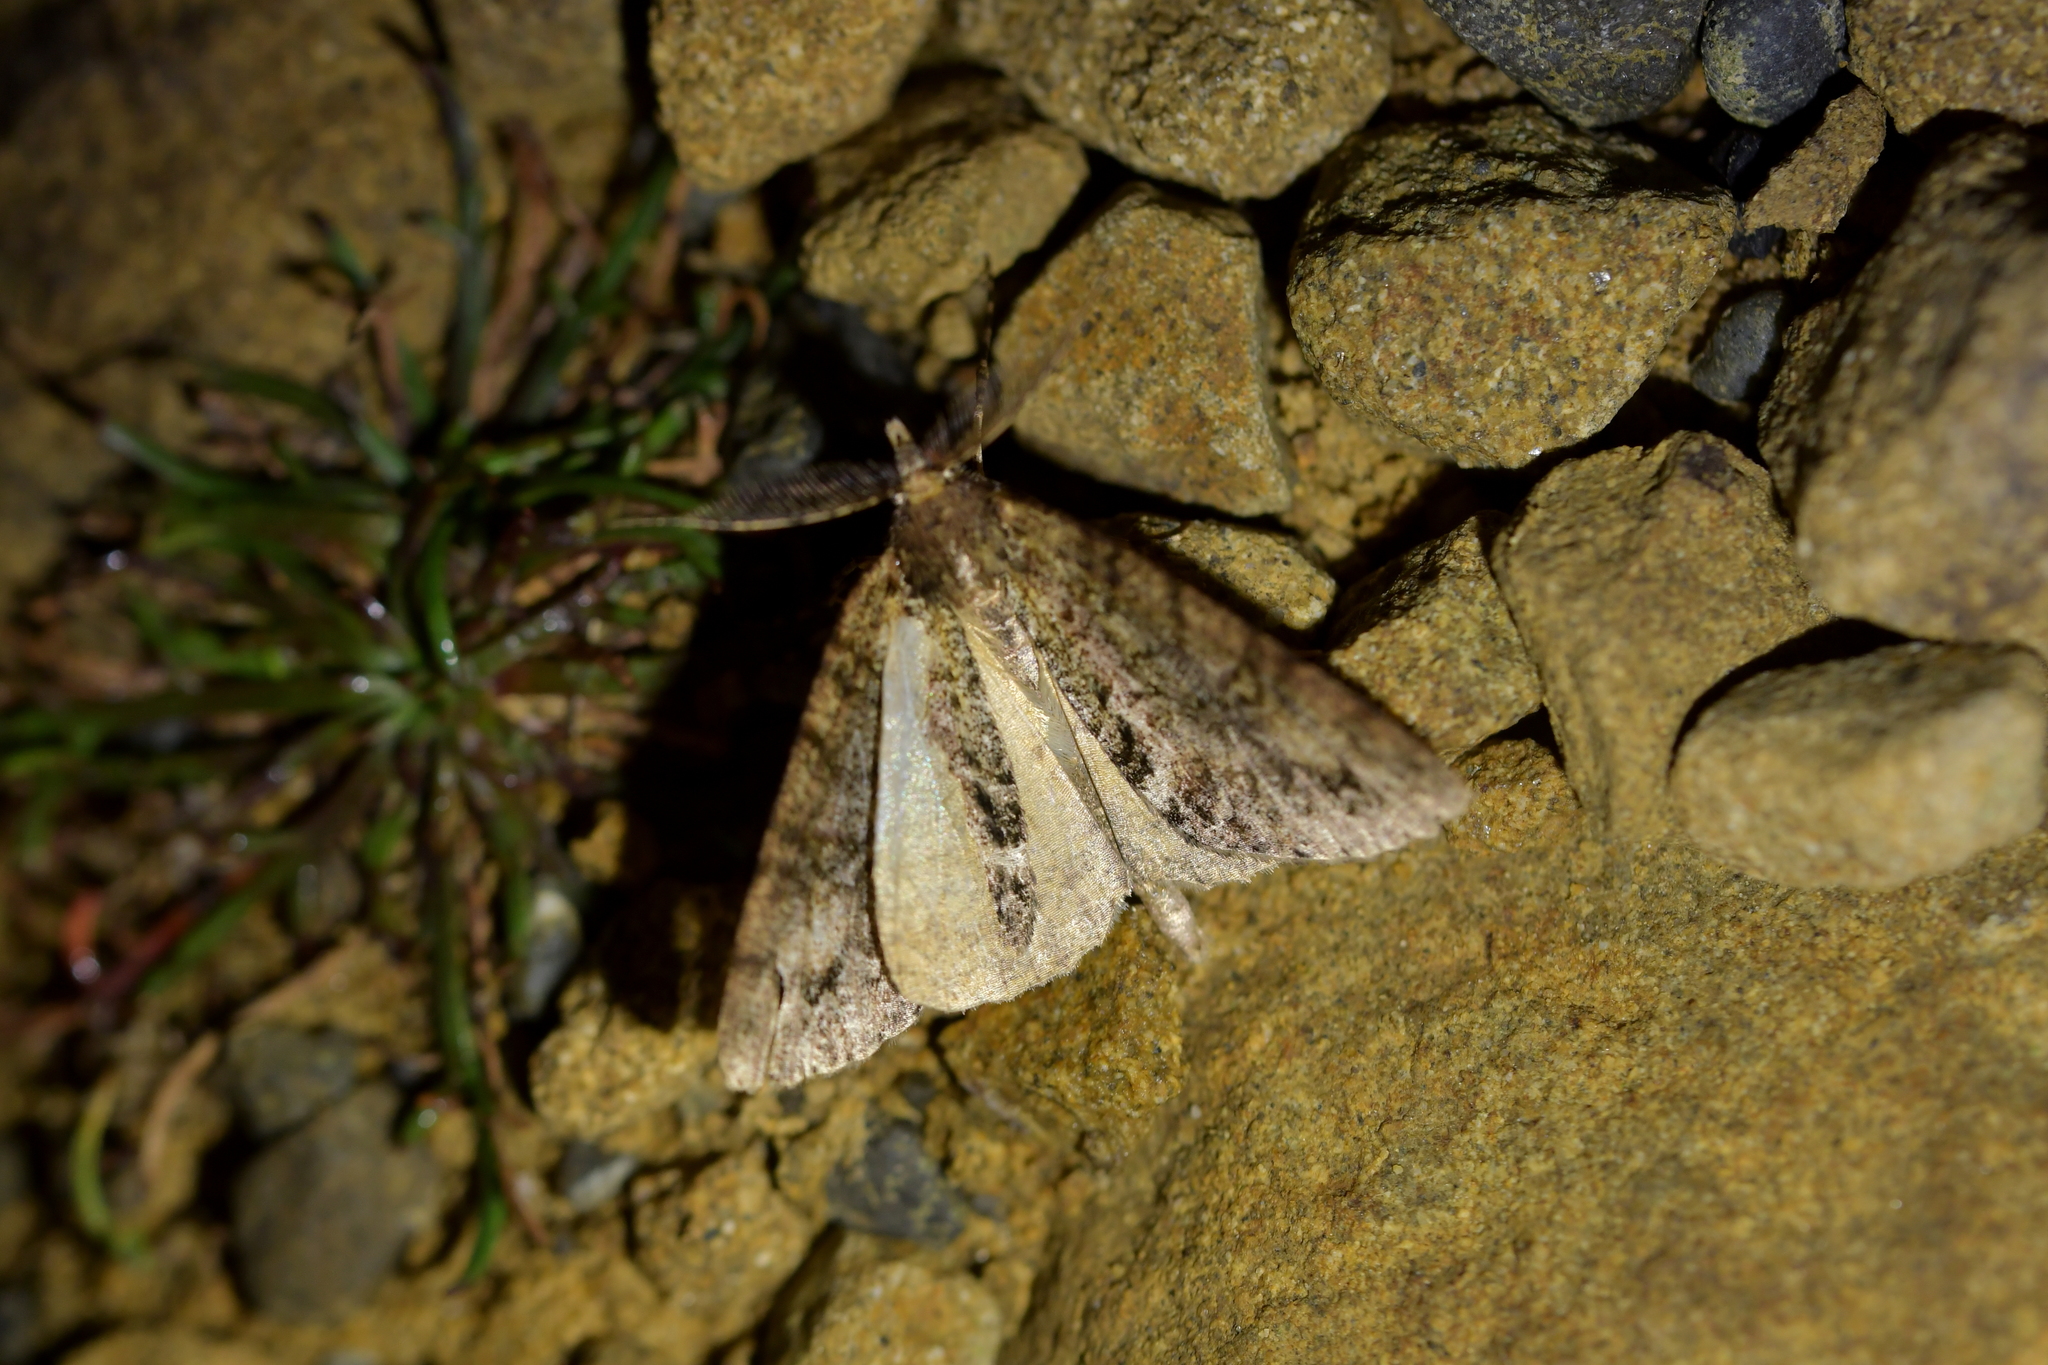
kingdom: Animalia
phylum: Arthropoda
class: Insecta
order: Lepidoptera
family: Geometridae
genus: Pseudocoremia
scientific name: Pseudocoremia suavis
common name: Common forest looper
